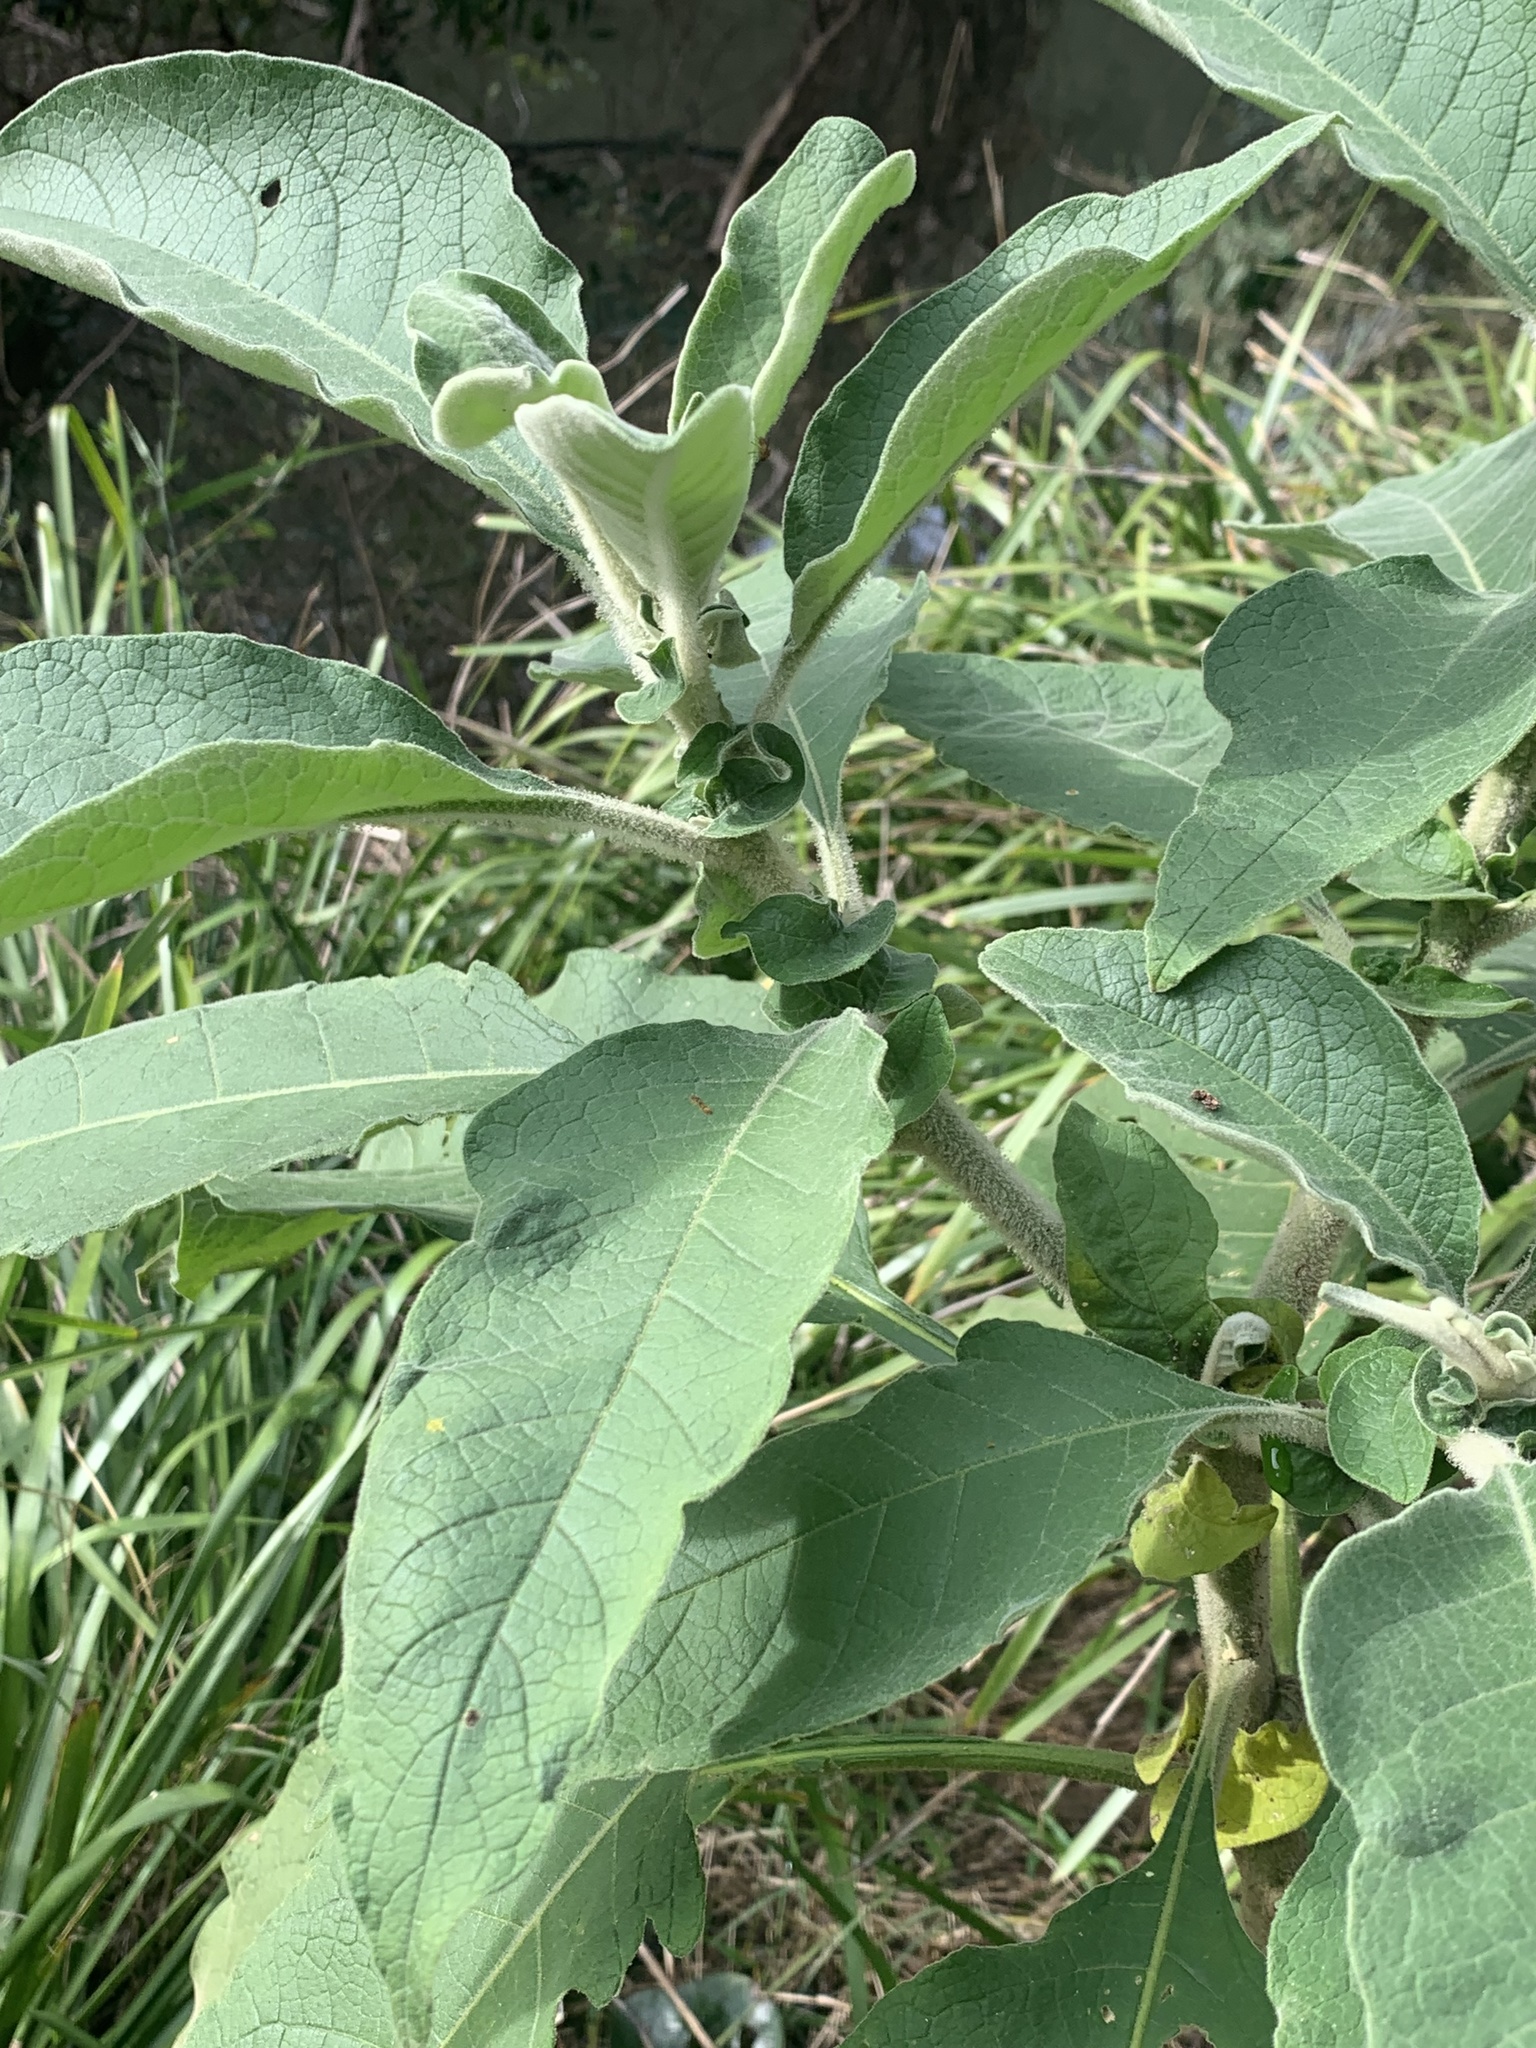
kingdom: Plantae
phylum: Tracheophyta
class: Magnoliopsida
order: Solanales
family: Solanaceae
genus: Solanum
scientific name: Solanum mauritianum
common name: Earleaf nightshade
